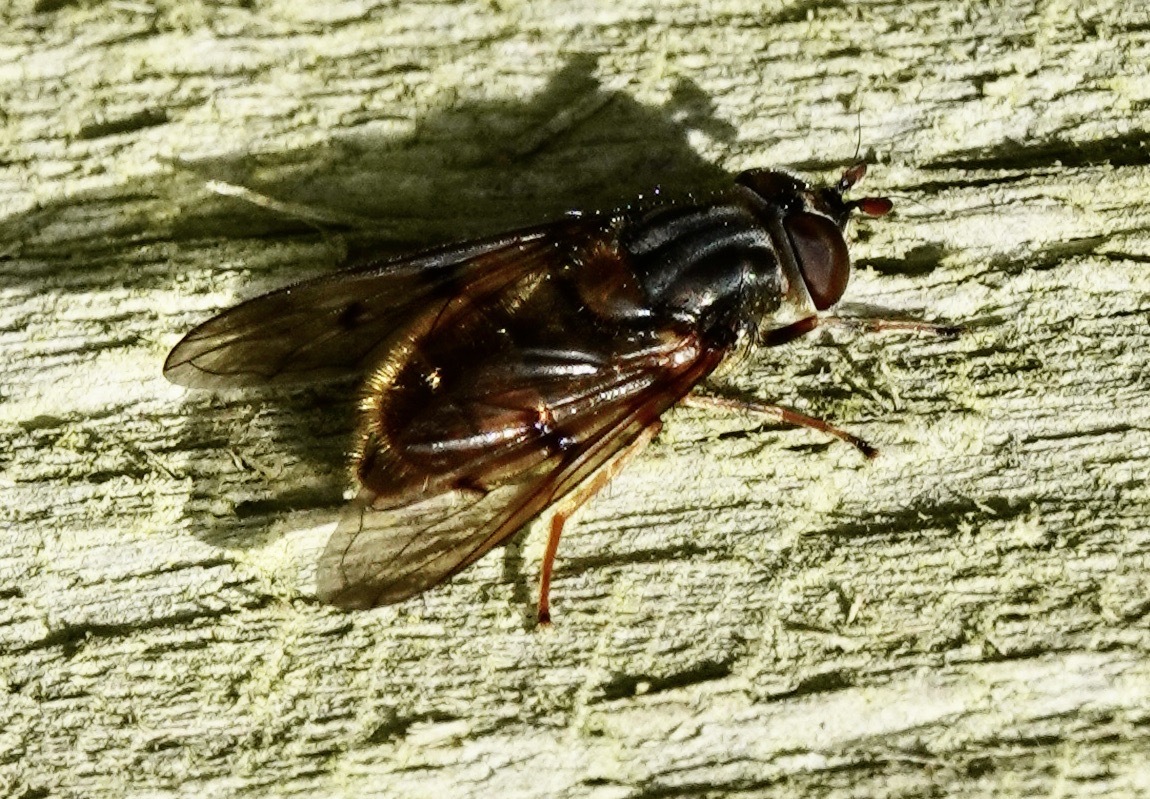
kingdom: Animalia
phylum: Arthropoda
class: Insecta
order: Diptera
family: Syrphidae
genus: Ferdinandea
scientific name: Ferdinandea cuprea
